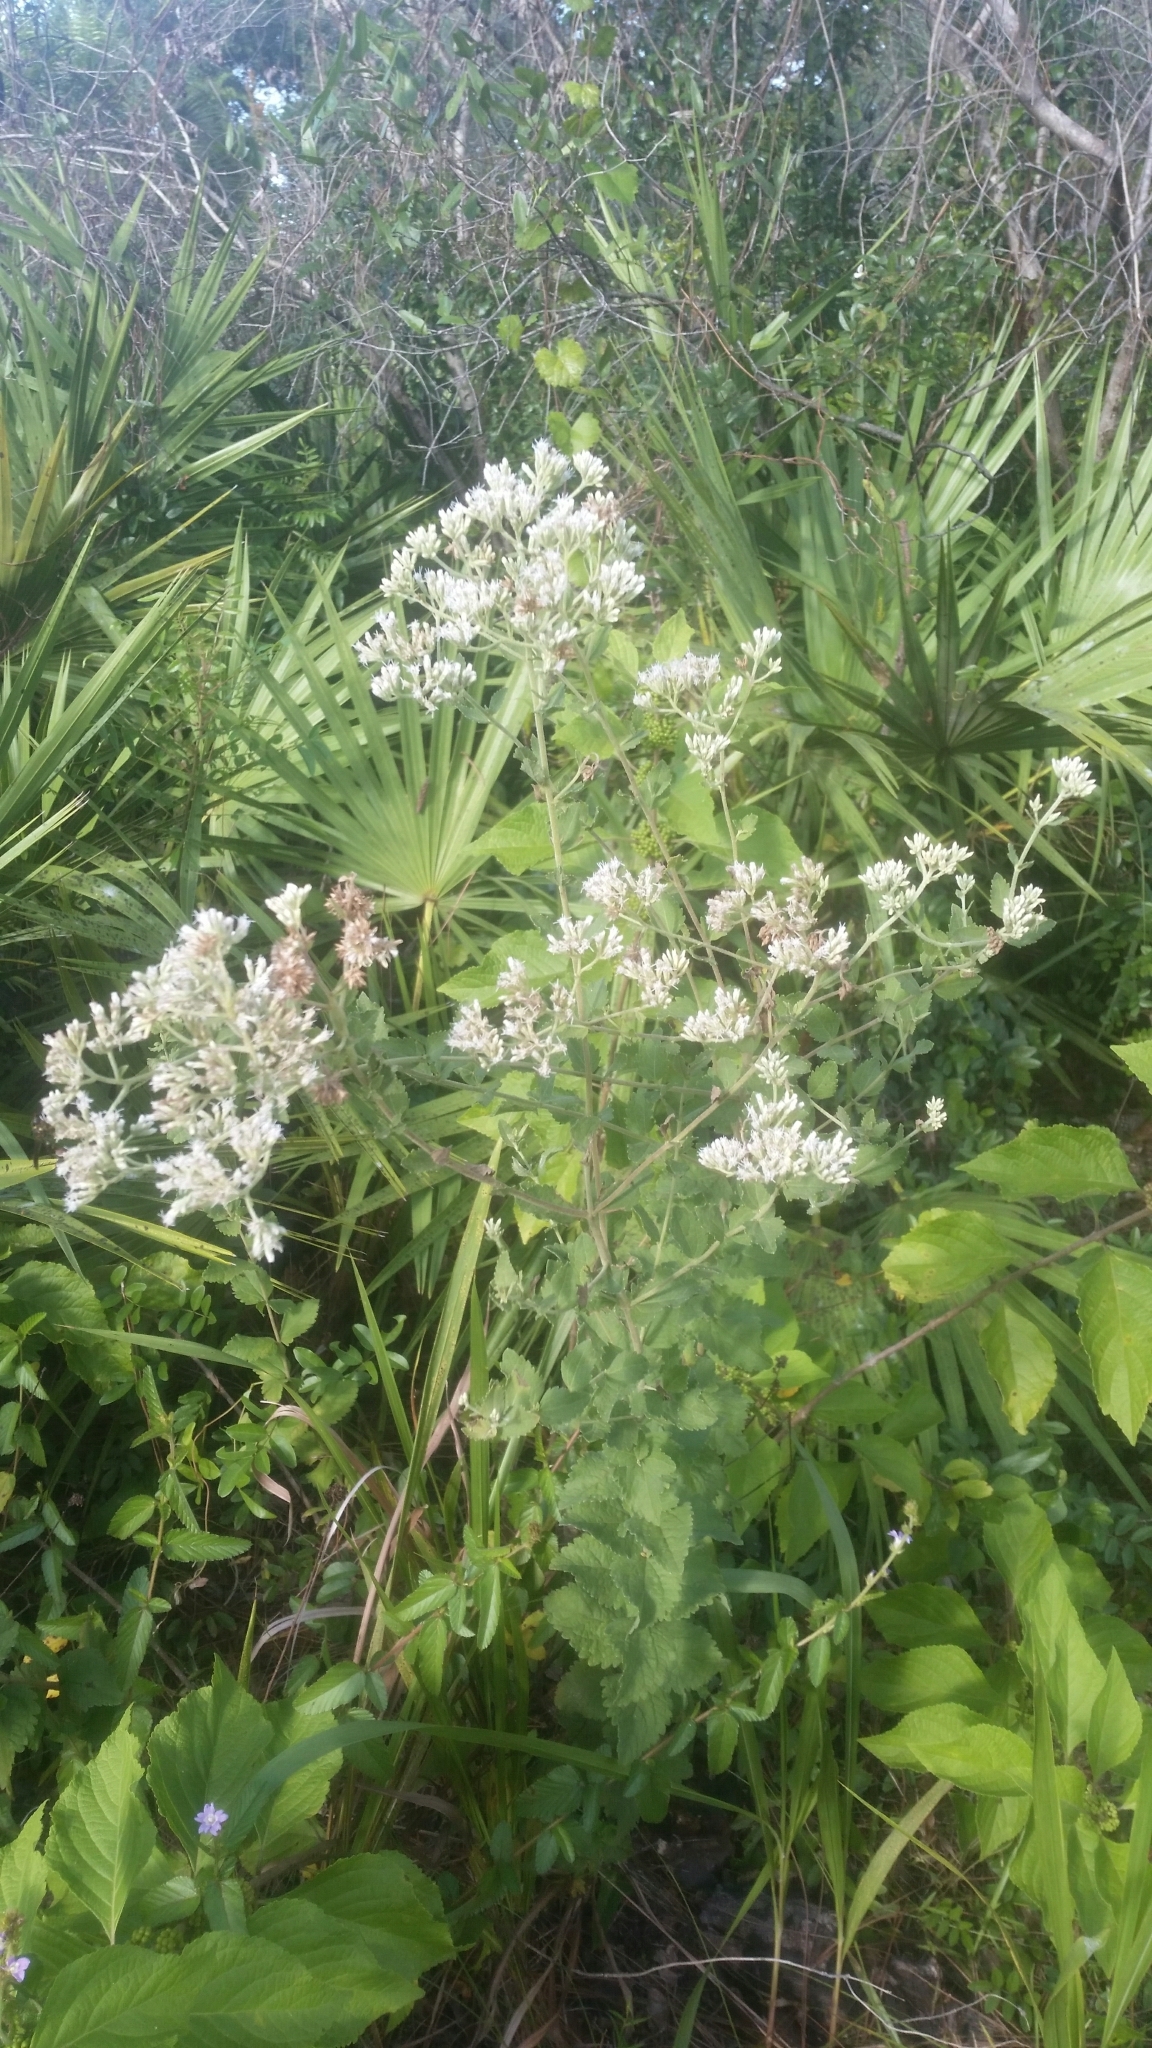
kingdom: Plantae
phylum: Tracheophyta
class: Magnoliopsida
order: Asterales
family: Asteraceae
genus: Eupatorium
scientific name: Eupatorium rotundifolium
